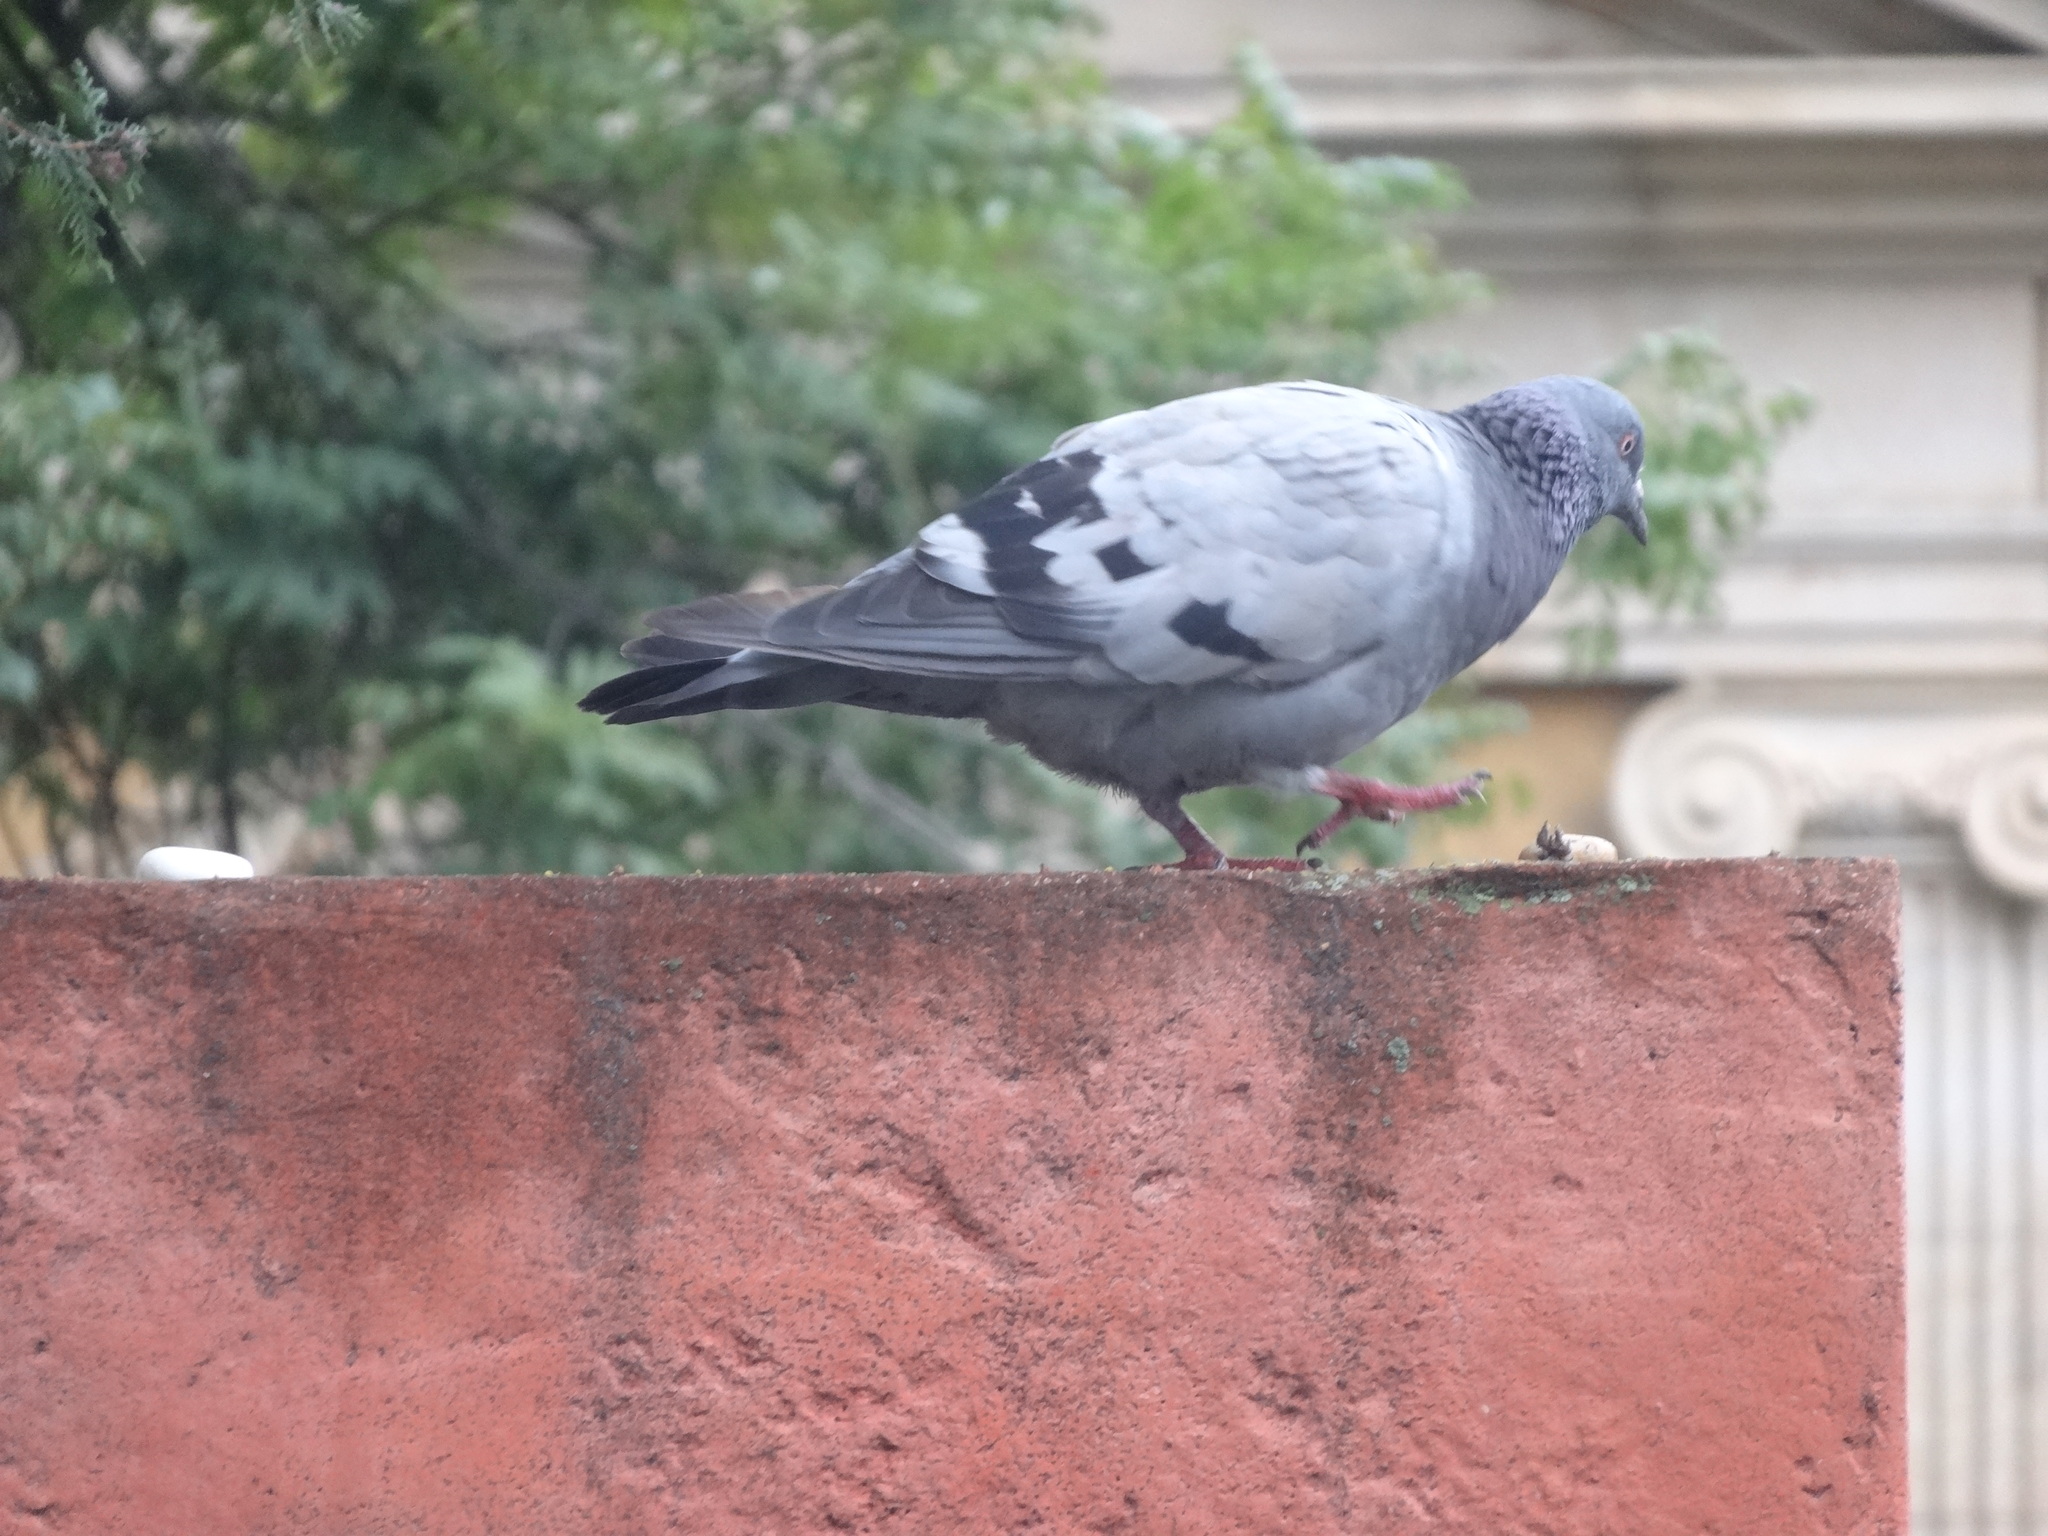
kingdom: Animalia
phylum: Chordata
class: Aves
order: Columbiformes
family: Columbidae
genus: Columba
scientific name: Columba livia
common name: Rock pigeon
